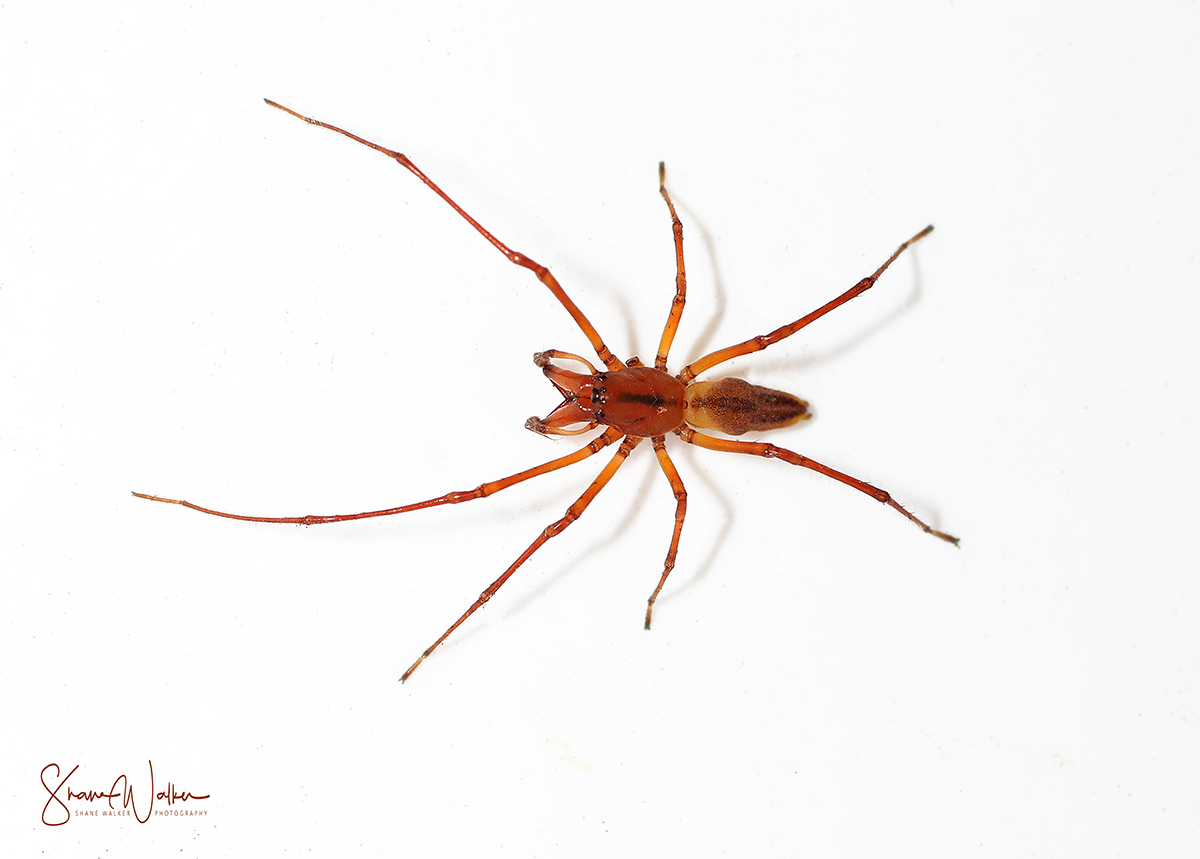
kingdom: Animalia
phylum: Arthropoda
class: Arachnida
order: Araneae
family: Cheiracanthiidae
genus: Cheiracanthium
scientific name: Cheiracanthium gracile
